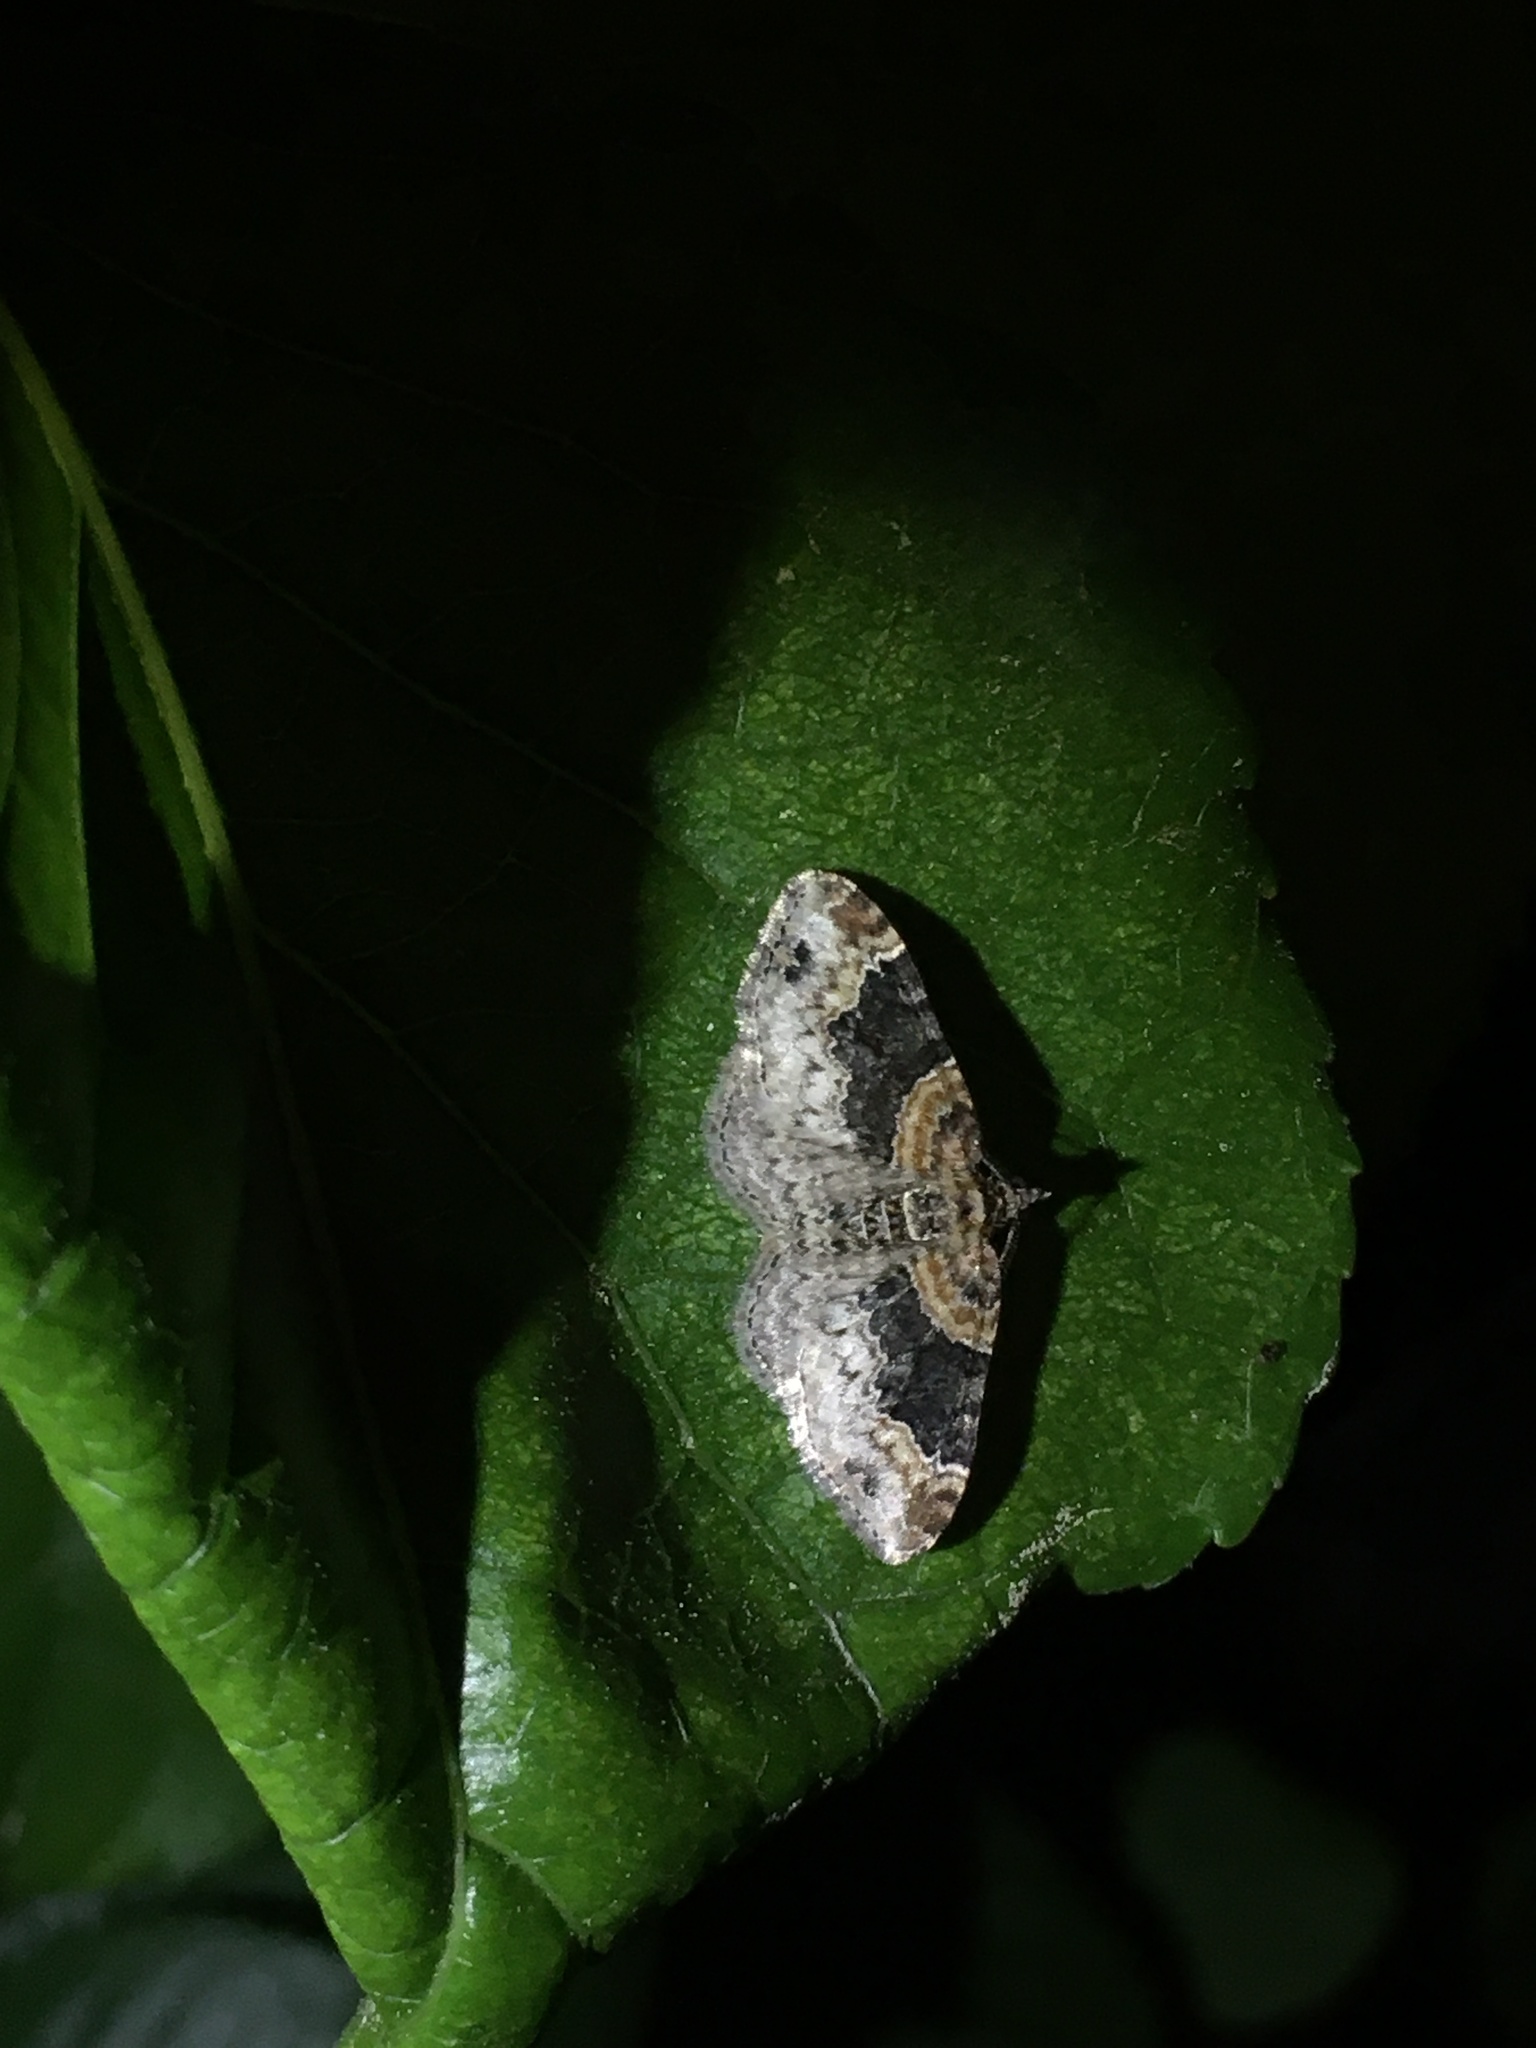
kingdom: Animalia
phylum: Arthropoda
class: Insecta
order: Lepidoptera
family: Geometridae
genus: Xanthorhoe
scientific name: Xanthorhoe ferrugata
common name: Dark-barred twin-spot carpet
